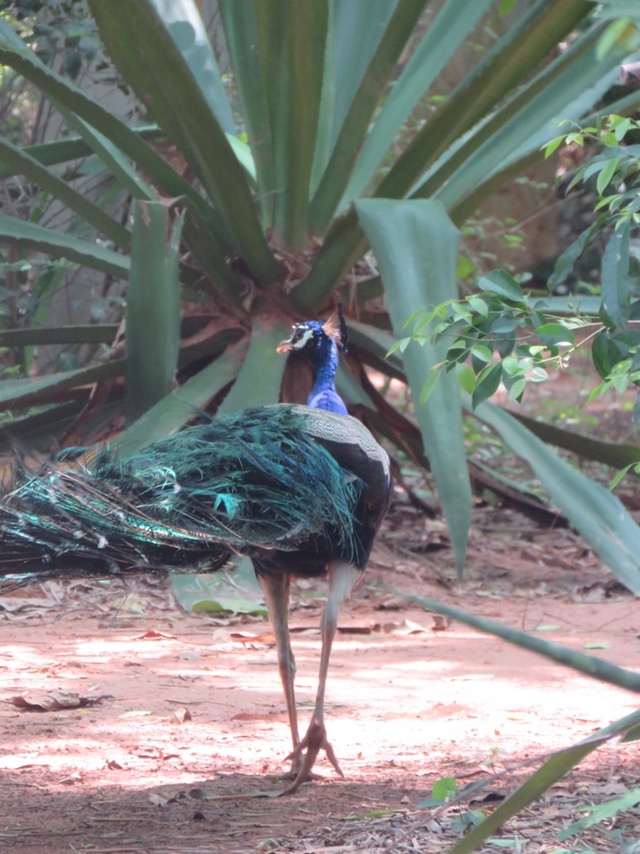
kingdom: Animalia
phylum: Chordata
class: Aves
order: Galliformes
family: Phasianidae
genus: Pavo
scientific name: Pavo cristatus
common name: Indian peafowl
